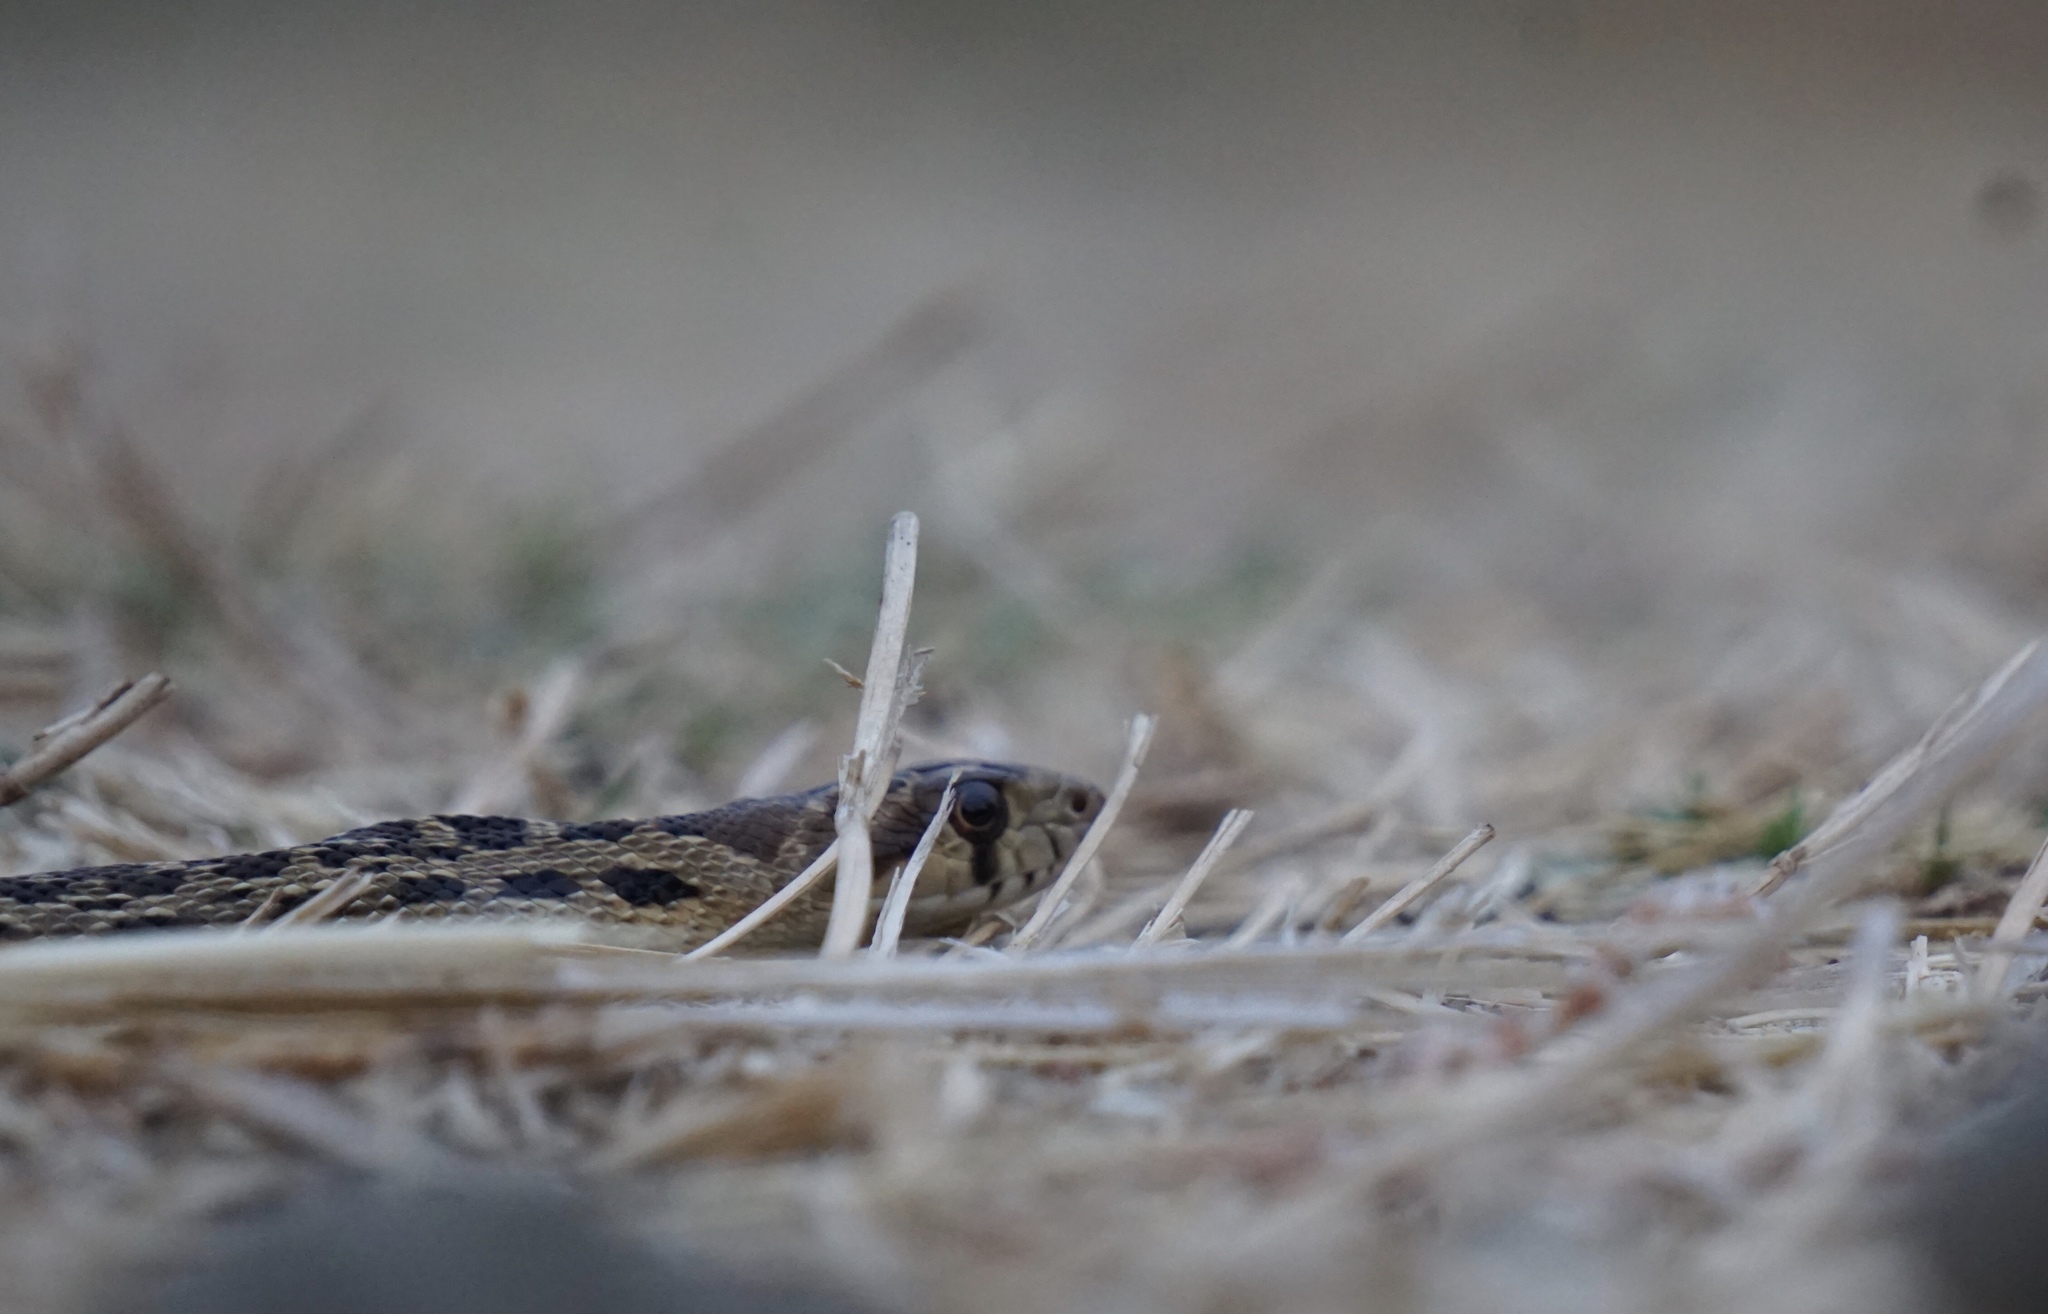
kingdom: Animalia
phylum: Chordata
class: Squamata
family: Colubridae
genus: Pituophis
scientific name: Pituophis catenifer
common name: Gopher snake
